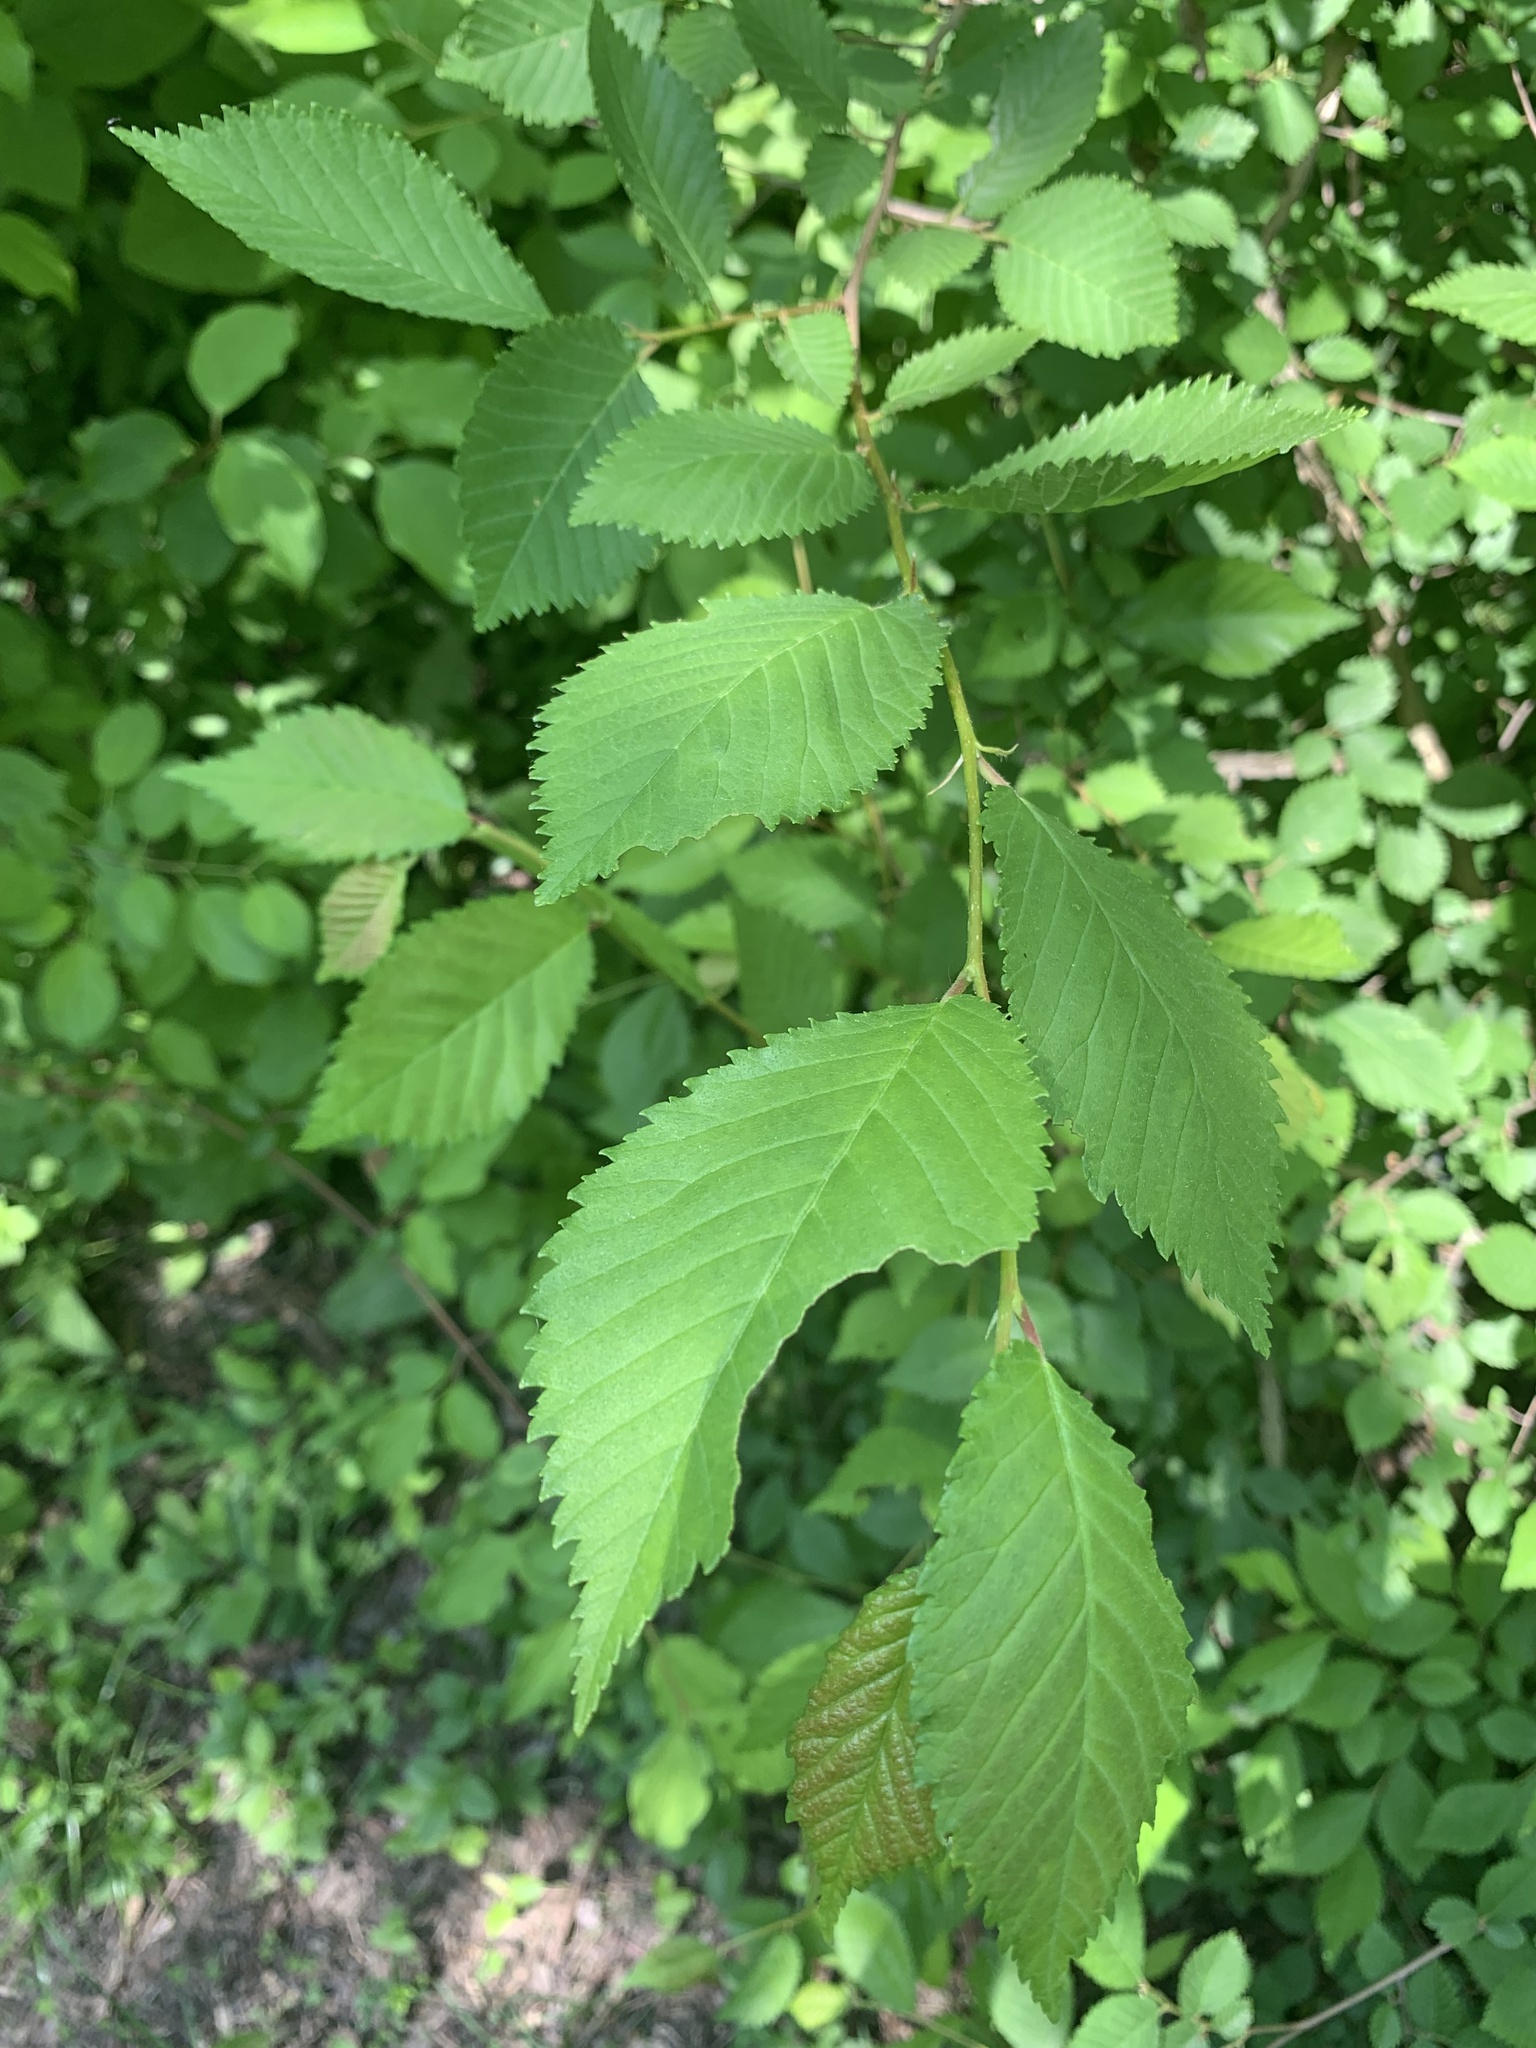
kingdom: Plantae
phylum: Tracheophyta
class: Magnoliopsida
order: Rosales
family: Ulmaceae
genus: Ulmus
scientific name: Ulmus minor
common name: Small-leaved elm
